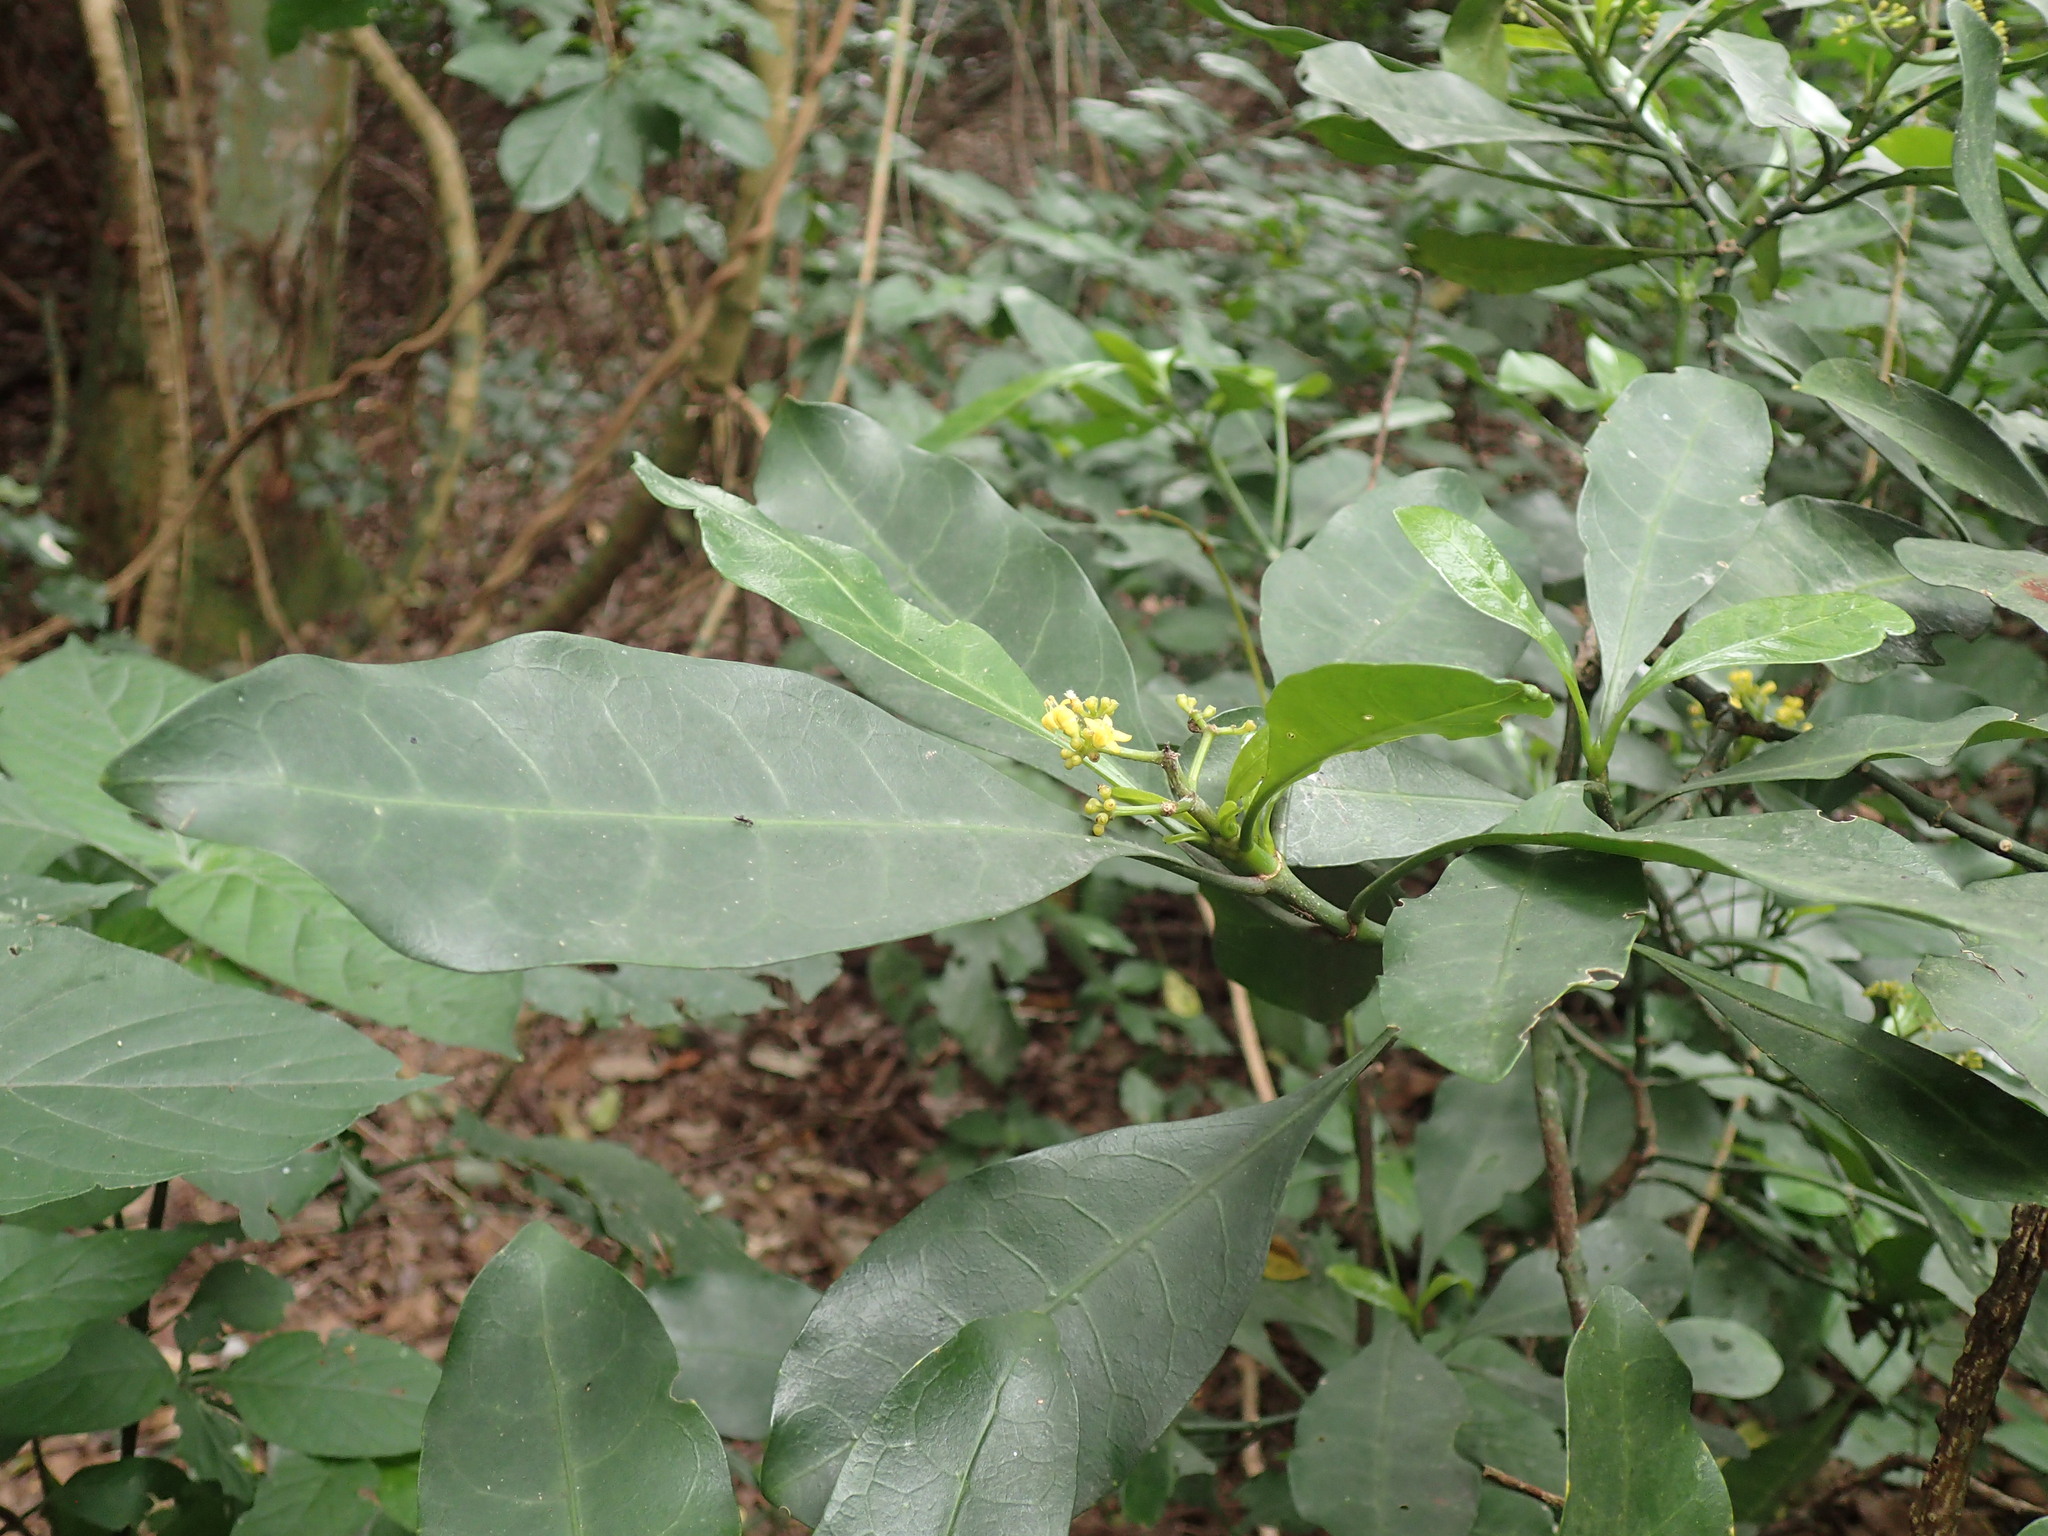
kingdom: Plantae
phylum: Tracheophyta
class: Magnoliopsida
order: Gentianales
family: Rubiaceae
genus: Psychotria
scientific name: Psychotria capensis
